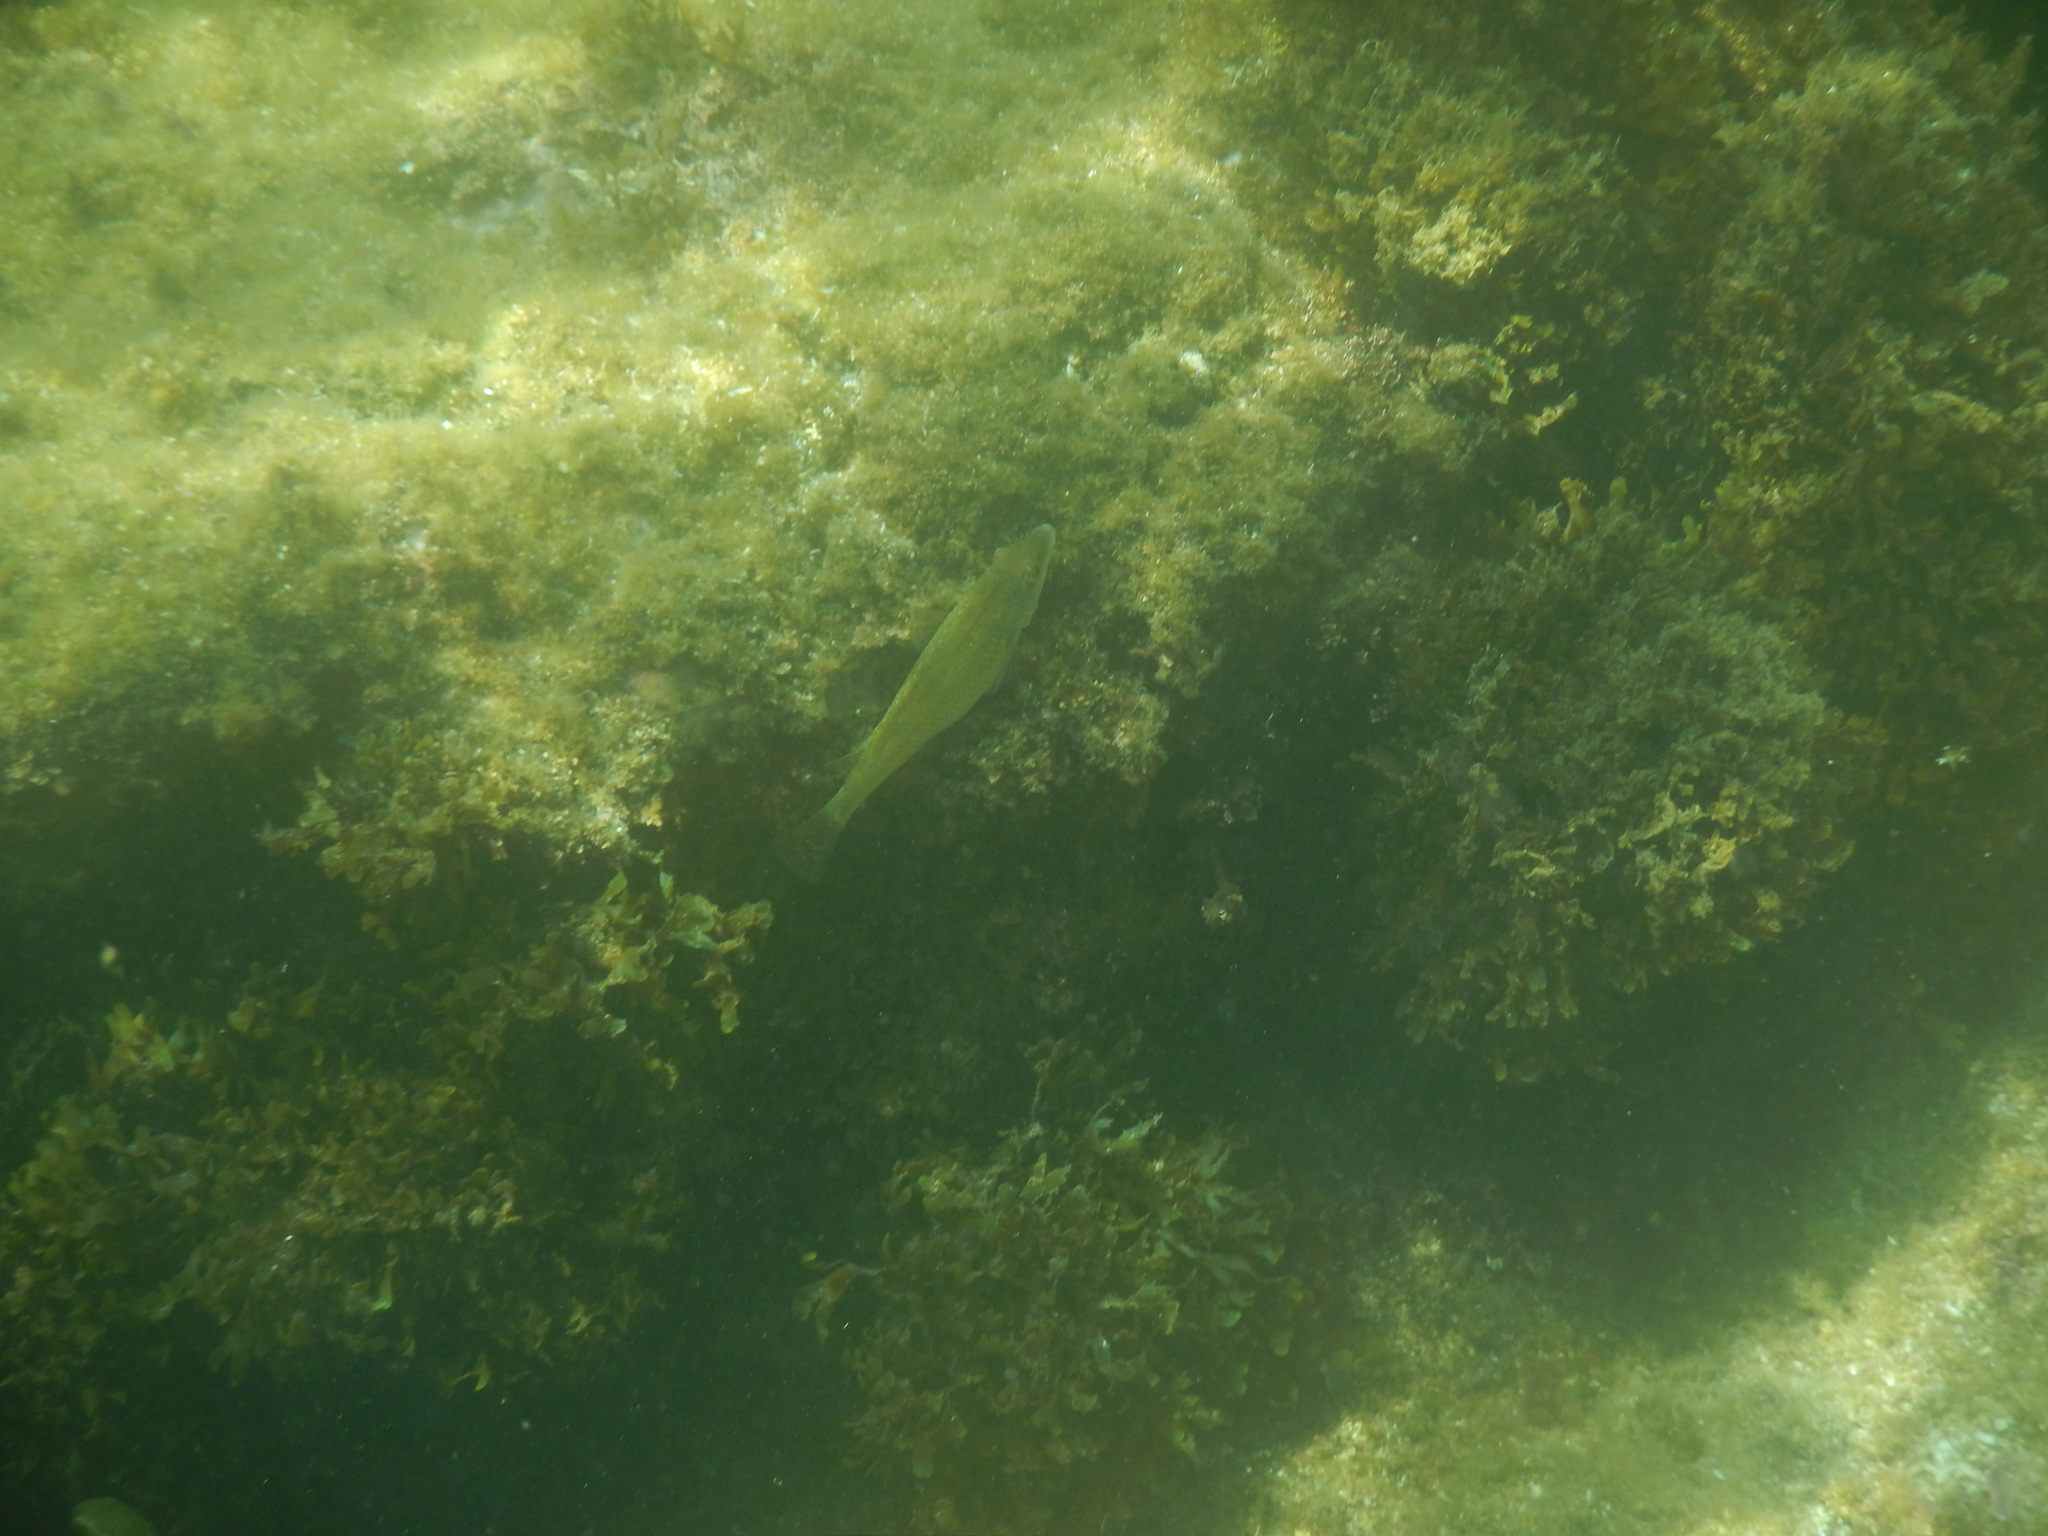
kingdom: Animalia
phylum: Chordata
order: Perciformes
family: Labridae
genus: Symphodus
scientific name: Symphodus tinca
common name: Peacock wrasse
